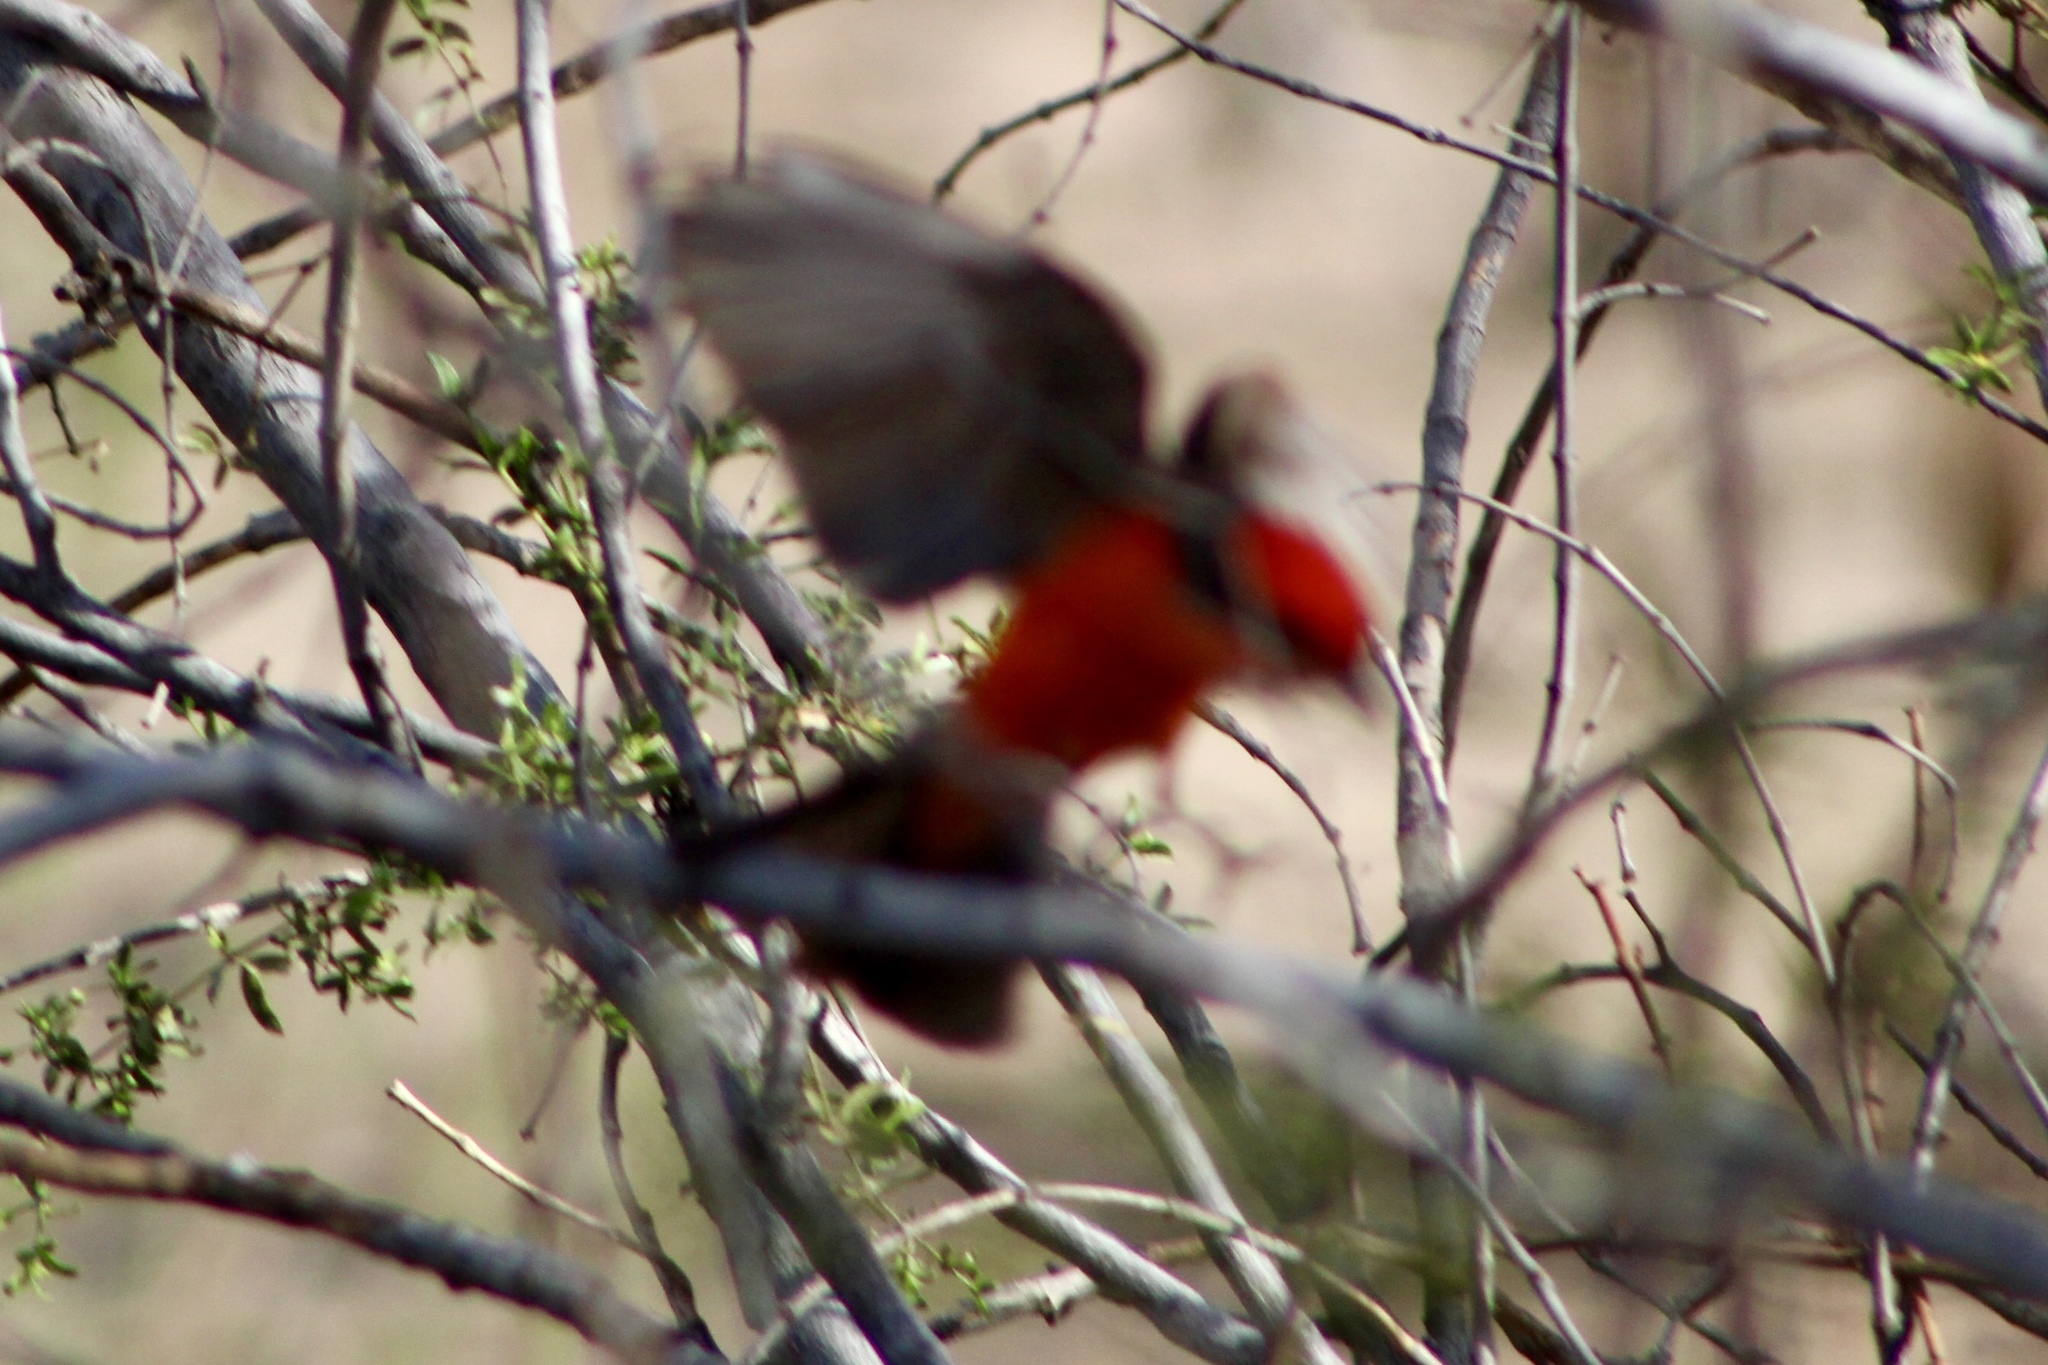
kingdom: Animalia
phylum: Chordata
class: Aves
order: Passeriformes
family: Tyrannidae
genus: Pyrocephalus
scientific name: Pyrocephalus rubinus
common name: Vermilion flycatcher
